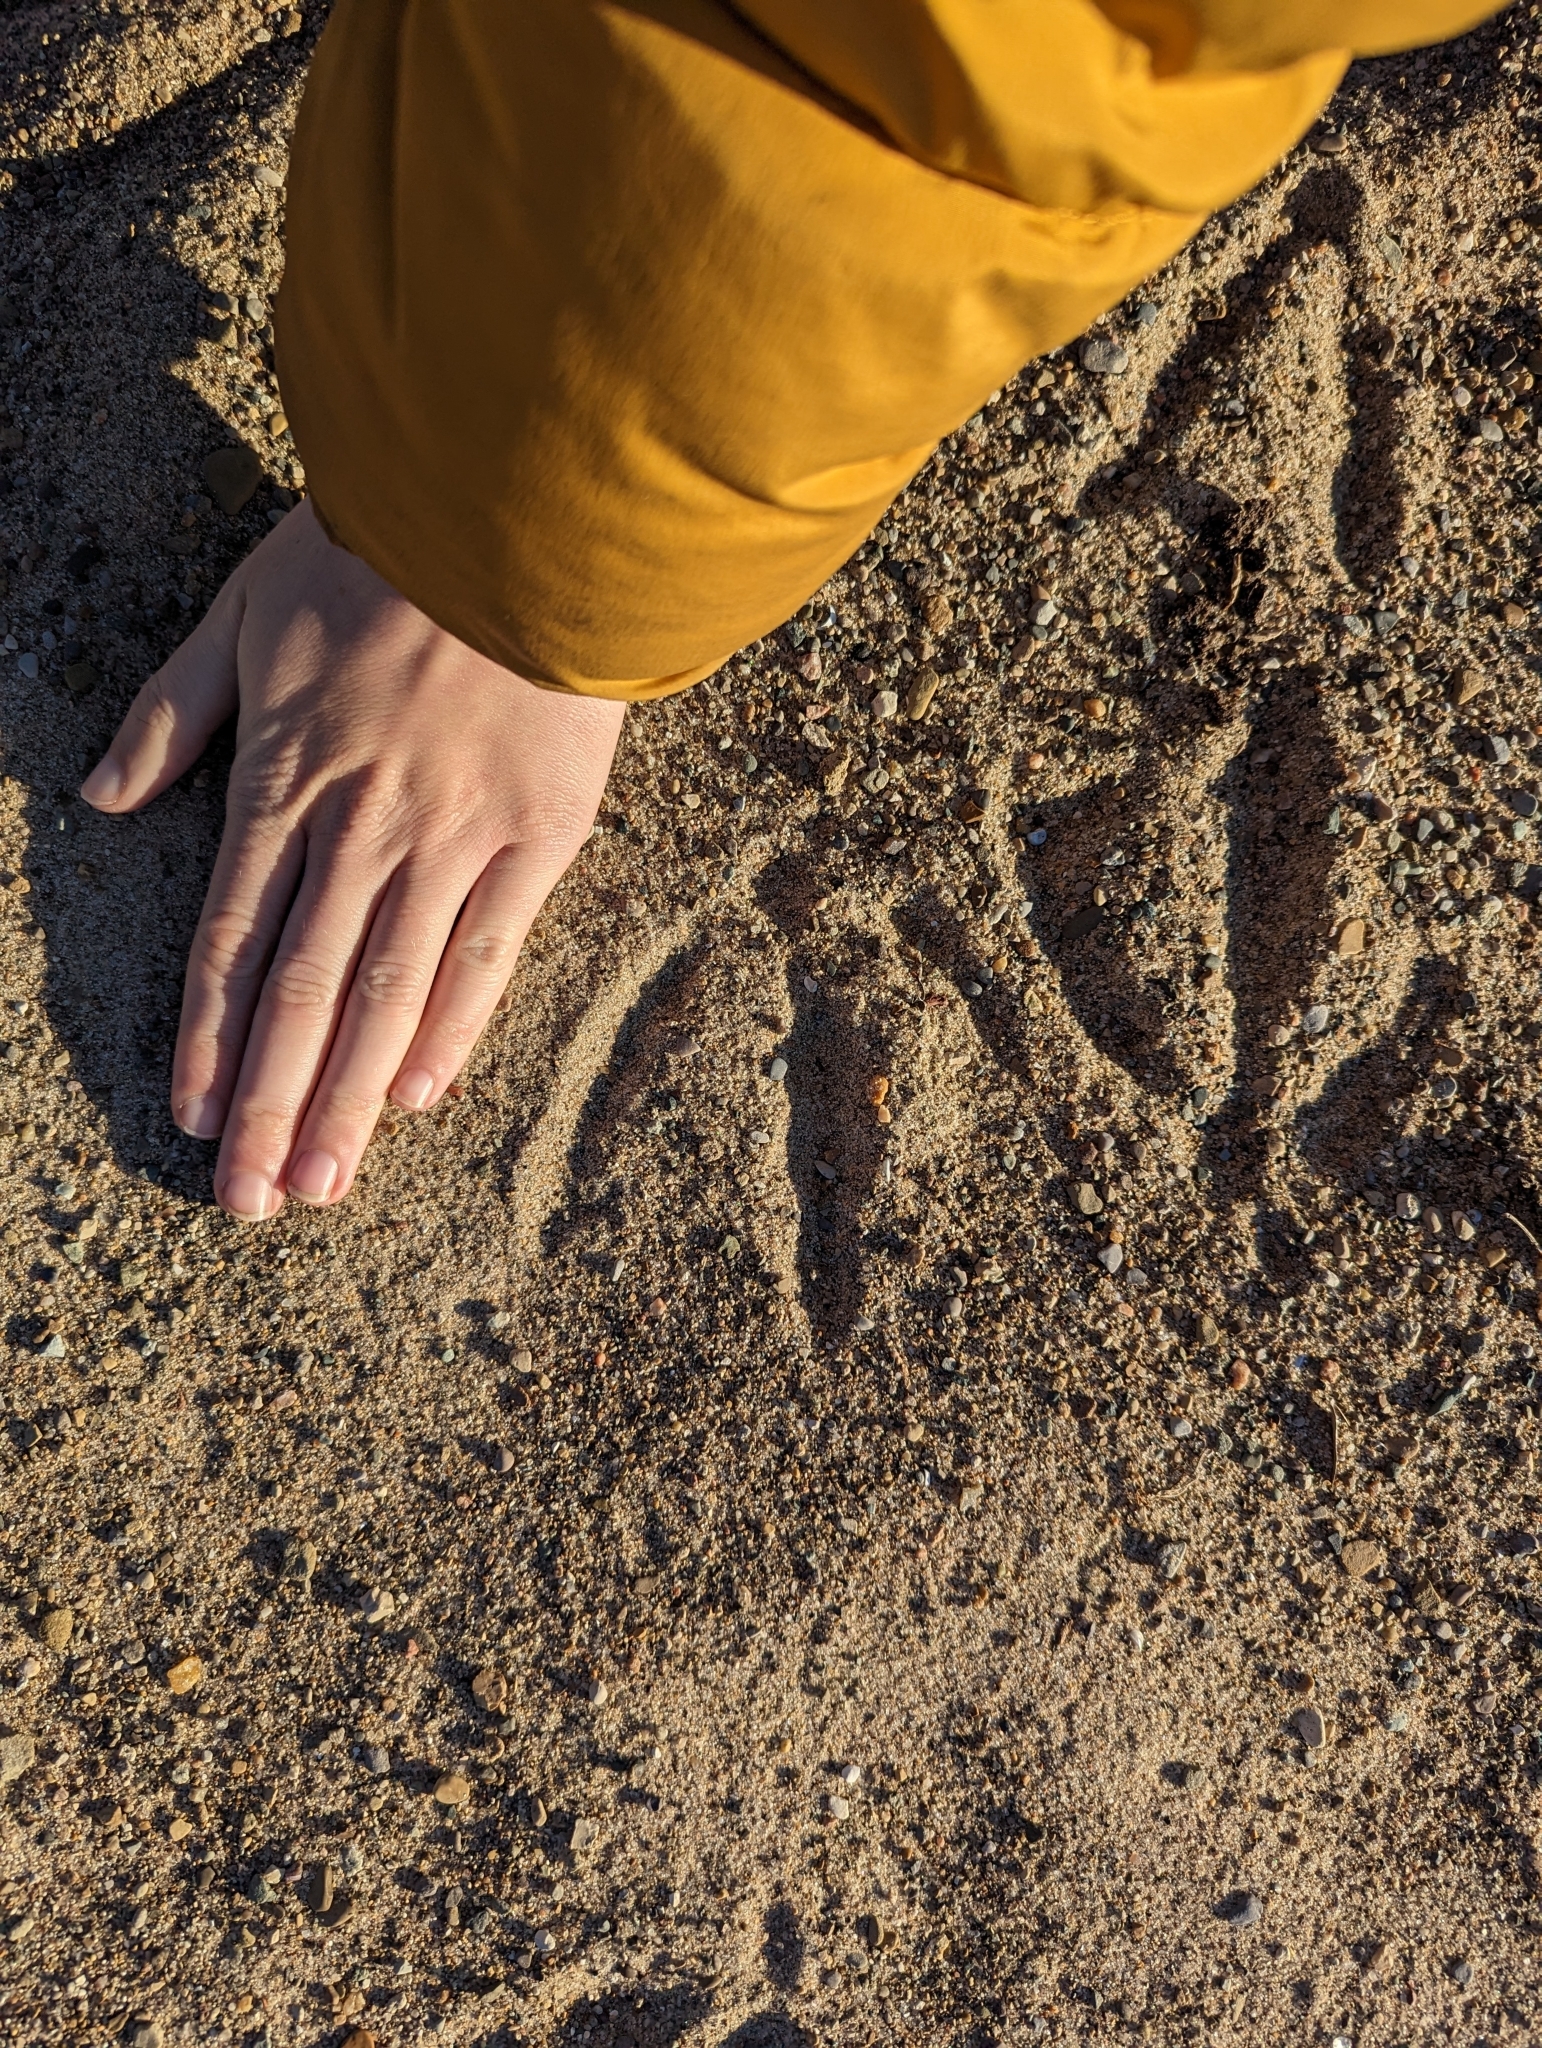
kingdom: Animalia
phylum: Chordata
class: Aves
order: Gruiformes
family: Gruidae
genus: Grus
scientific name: Grus canadensis
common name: Sandhill crane
